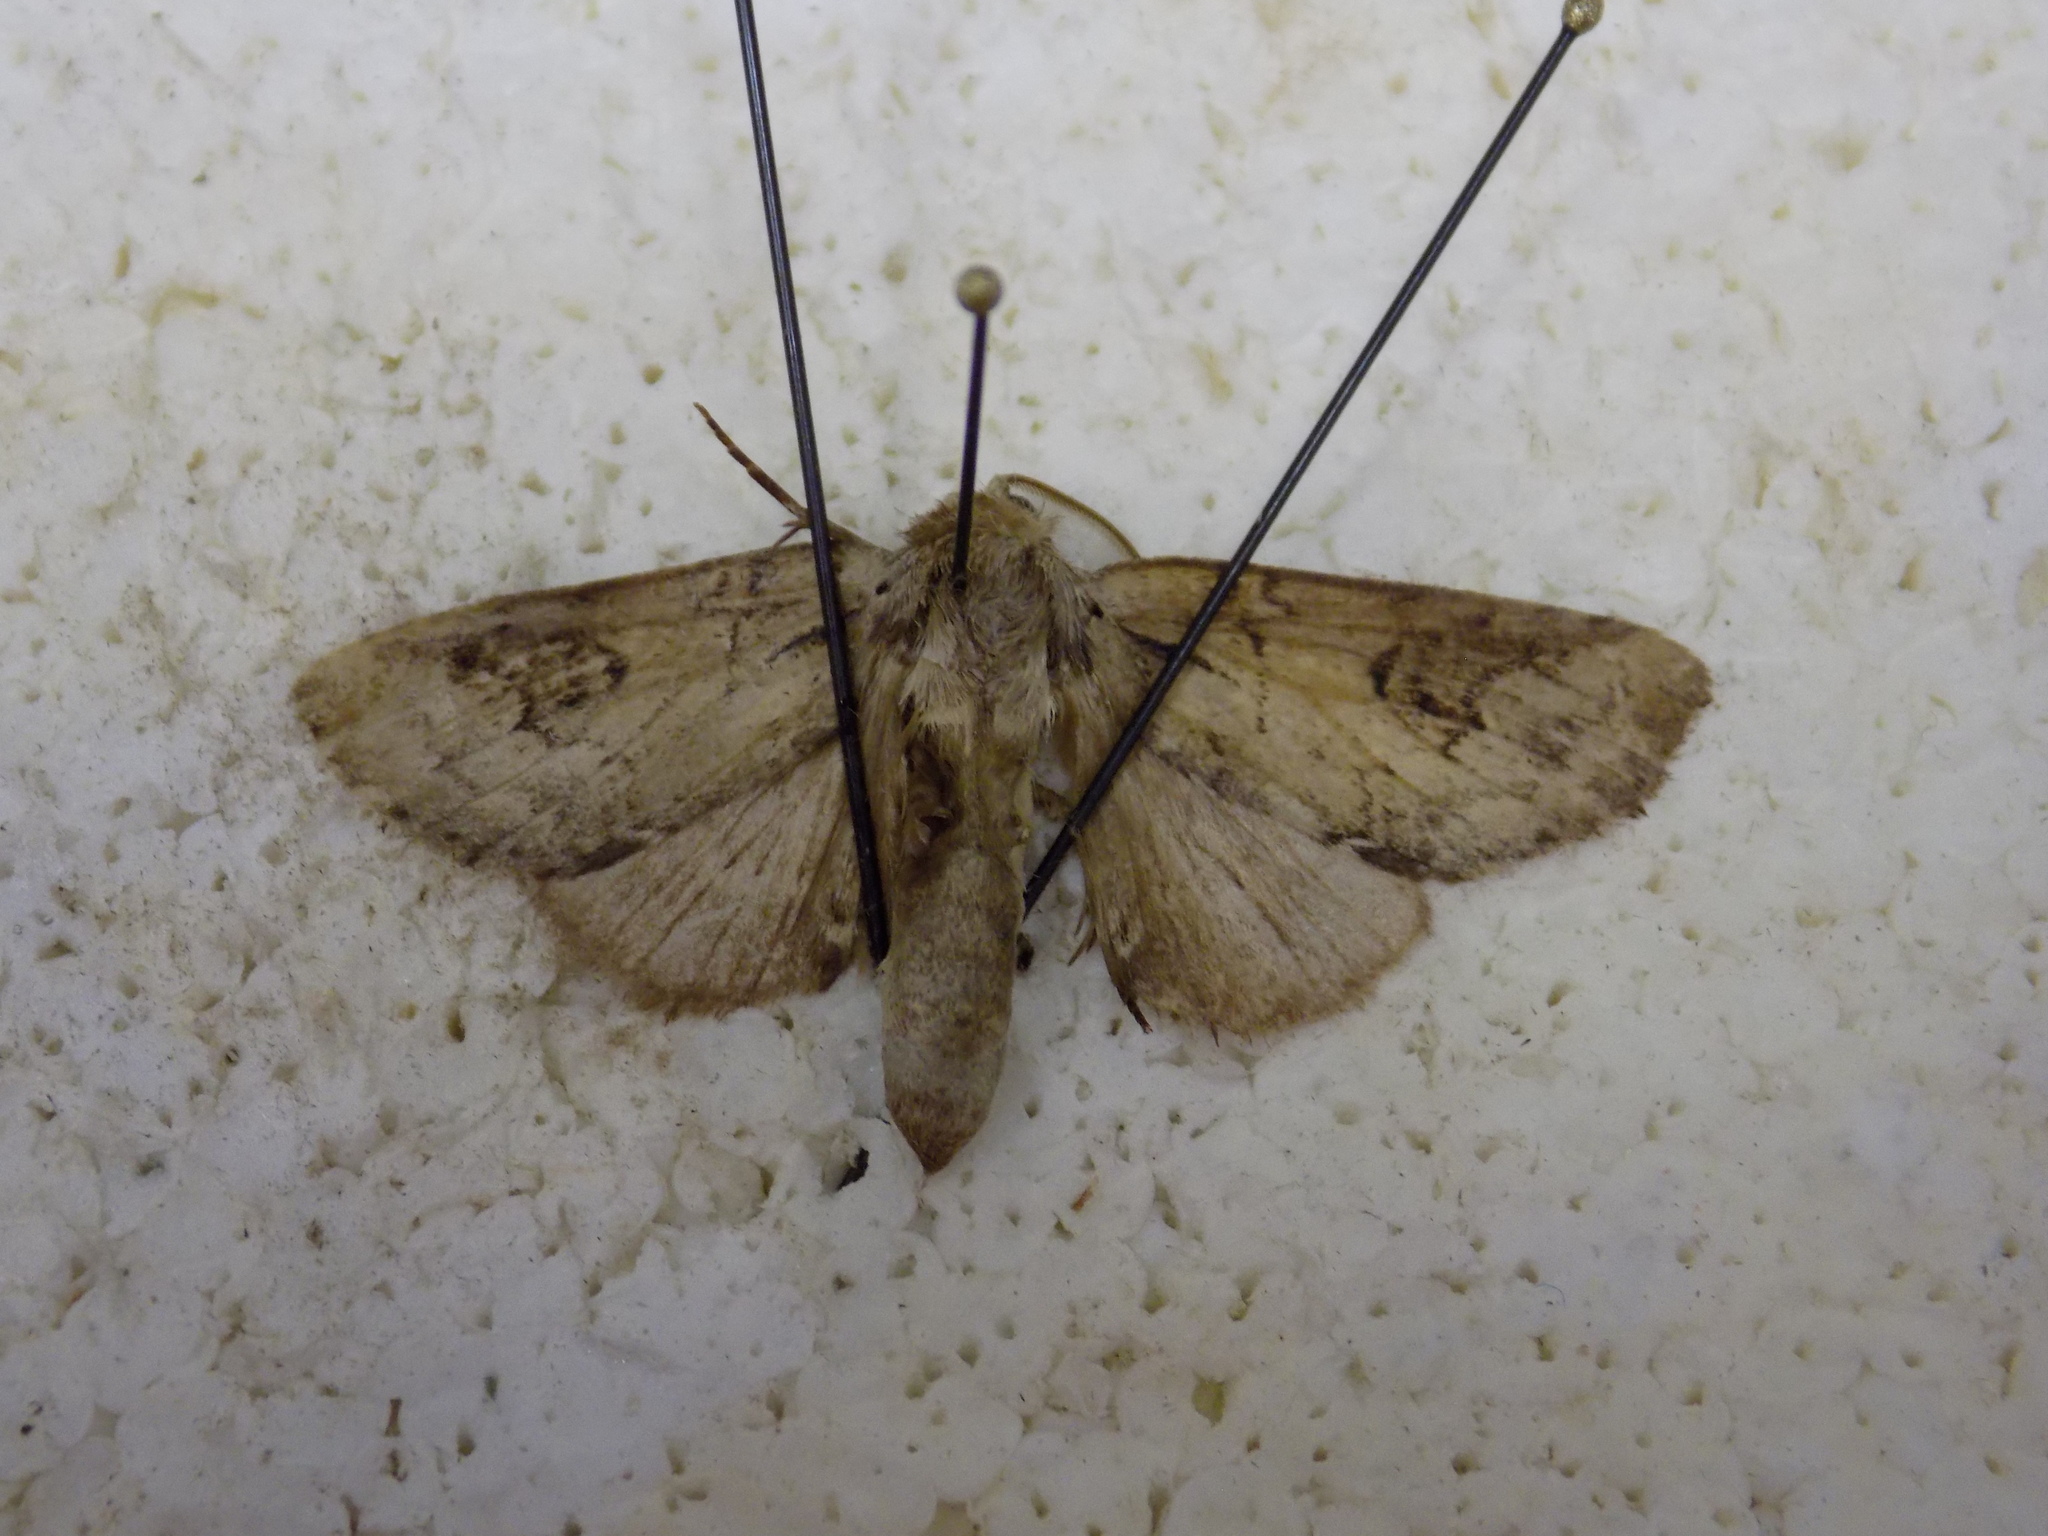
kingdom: Animalia
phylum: Arthropoda
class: Insecta
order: Lepidoptera
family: Notodontidae
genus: Lochmaeus
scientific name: Lochmaeus bilineata
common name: Double-lined prominent
